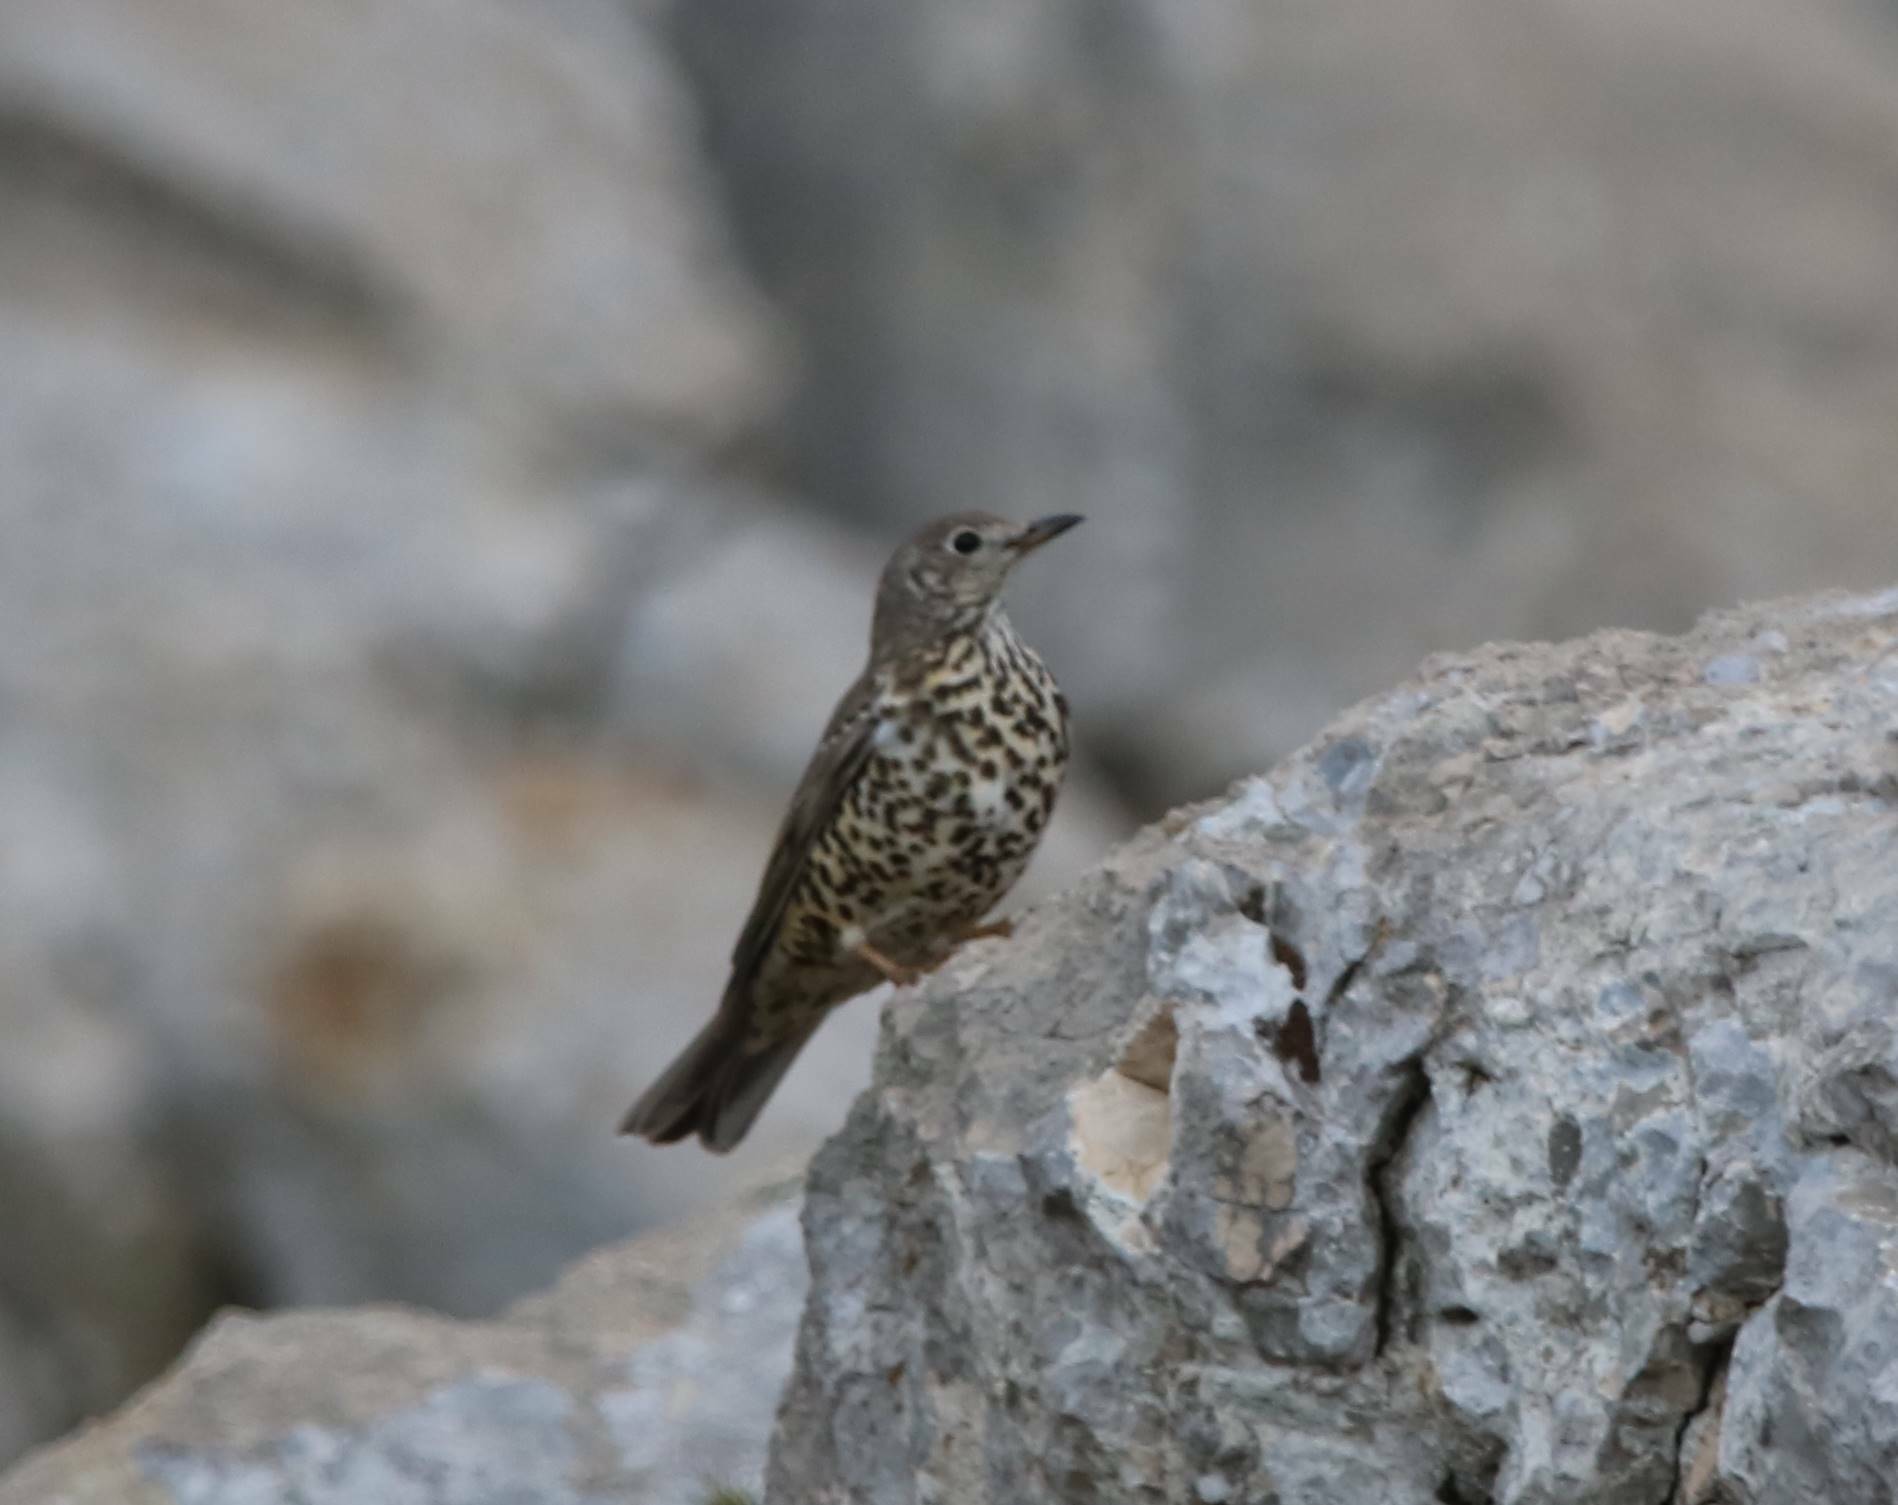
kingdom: Animalia
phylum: Chordata
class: Aves
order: Passeriformes
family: Turdidae
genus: Turdus
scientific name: Turdus viscivorus
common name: Mistle thrush
